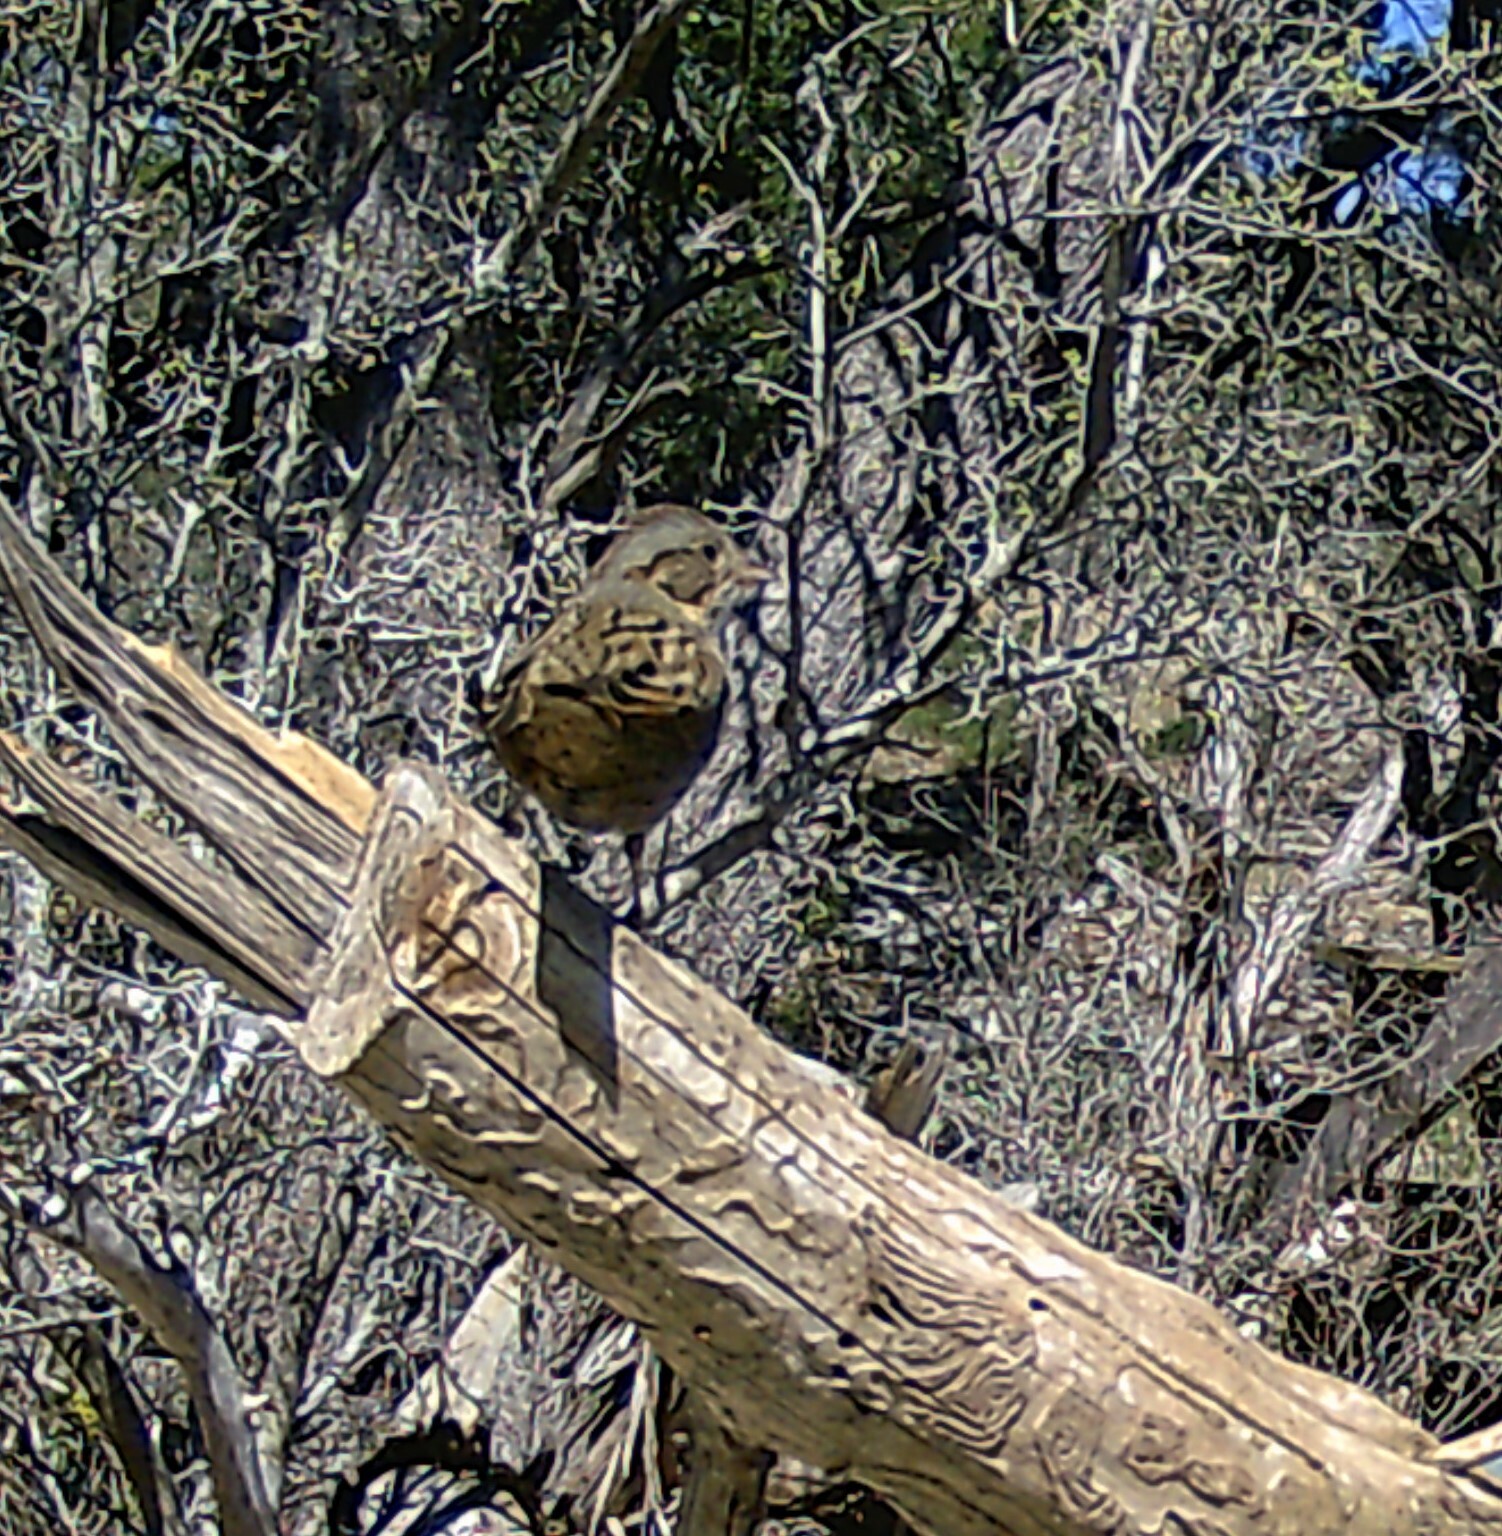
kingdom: Animalia
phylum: Chordata
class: Aves
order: Passeriformes
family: Passerellidae
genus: Melospiza
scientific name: Melospiza lincolnii
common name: Lincoln's sparrow
